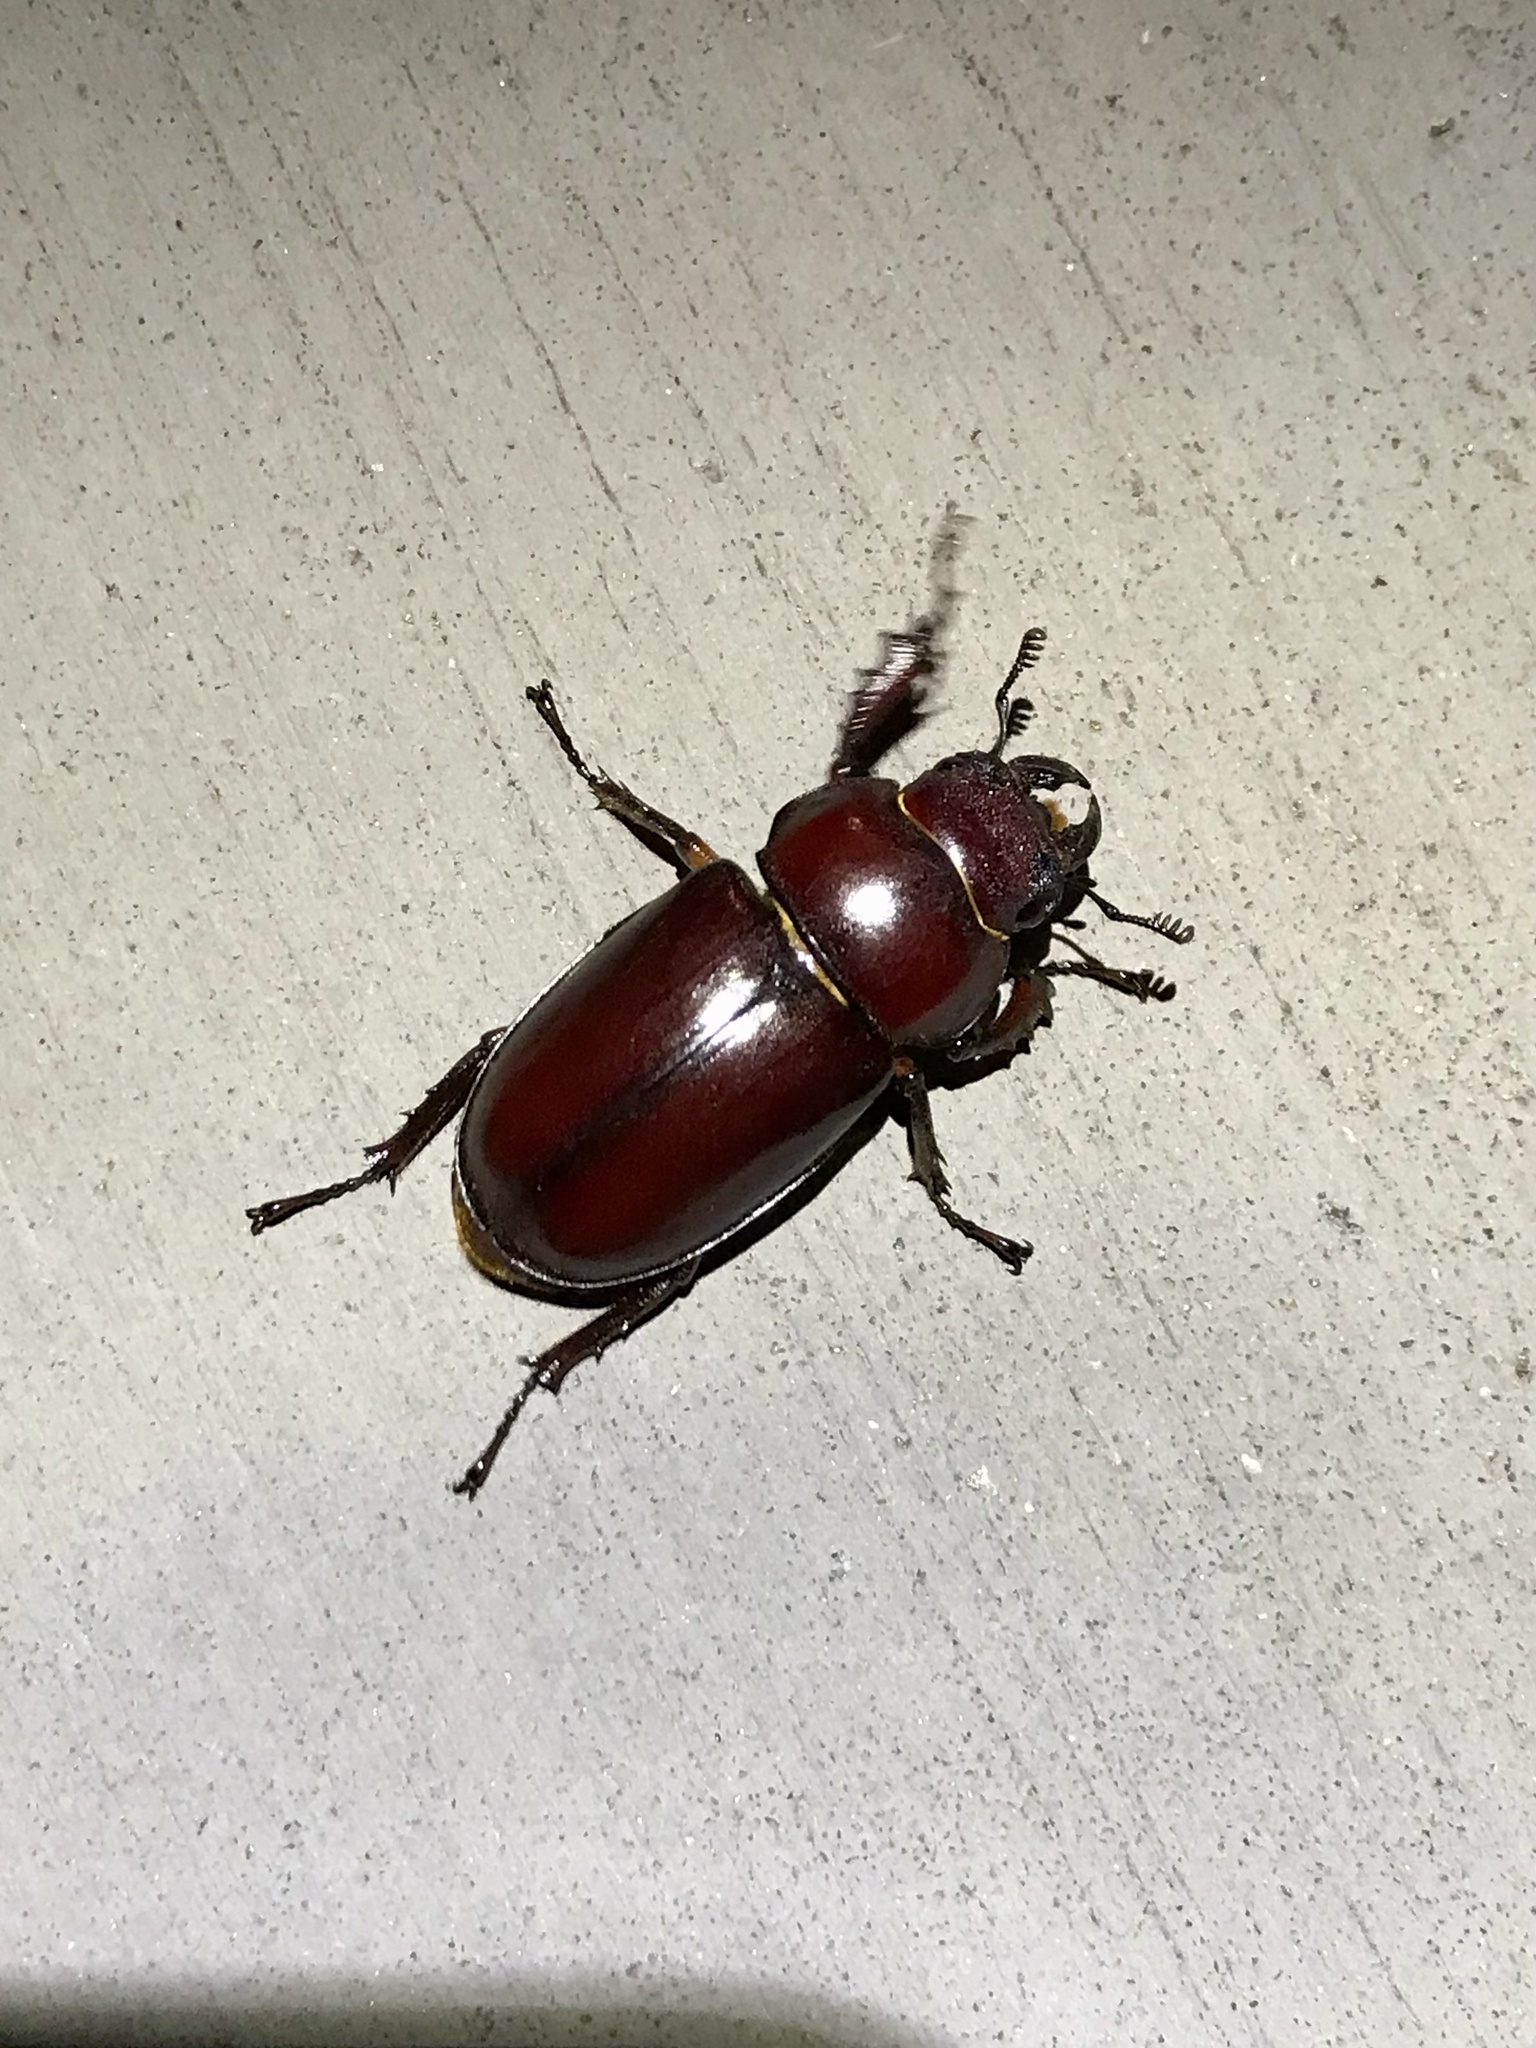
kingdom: Animalia
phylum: Arthropoda
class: Insecta
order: Coleoptera
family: Lucanidae
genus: Lucanus
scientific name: Lucanus capreolus
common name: Stag beetle
